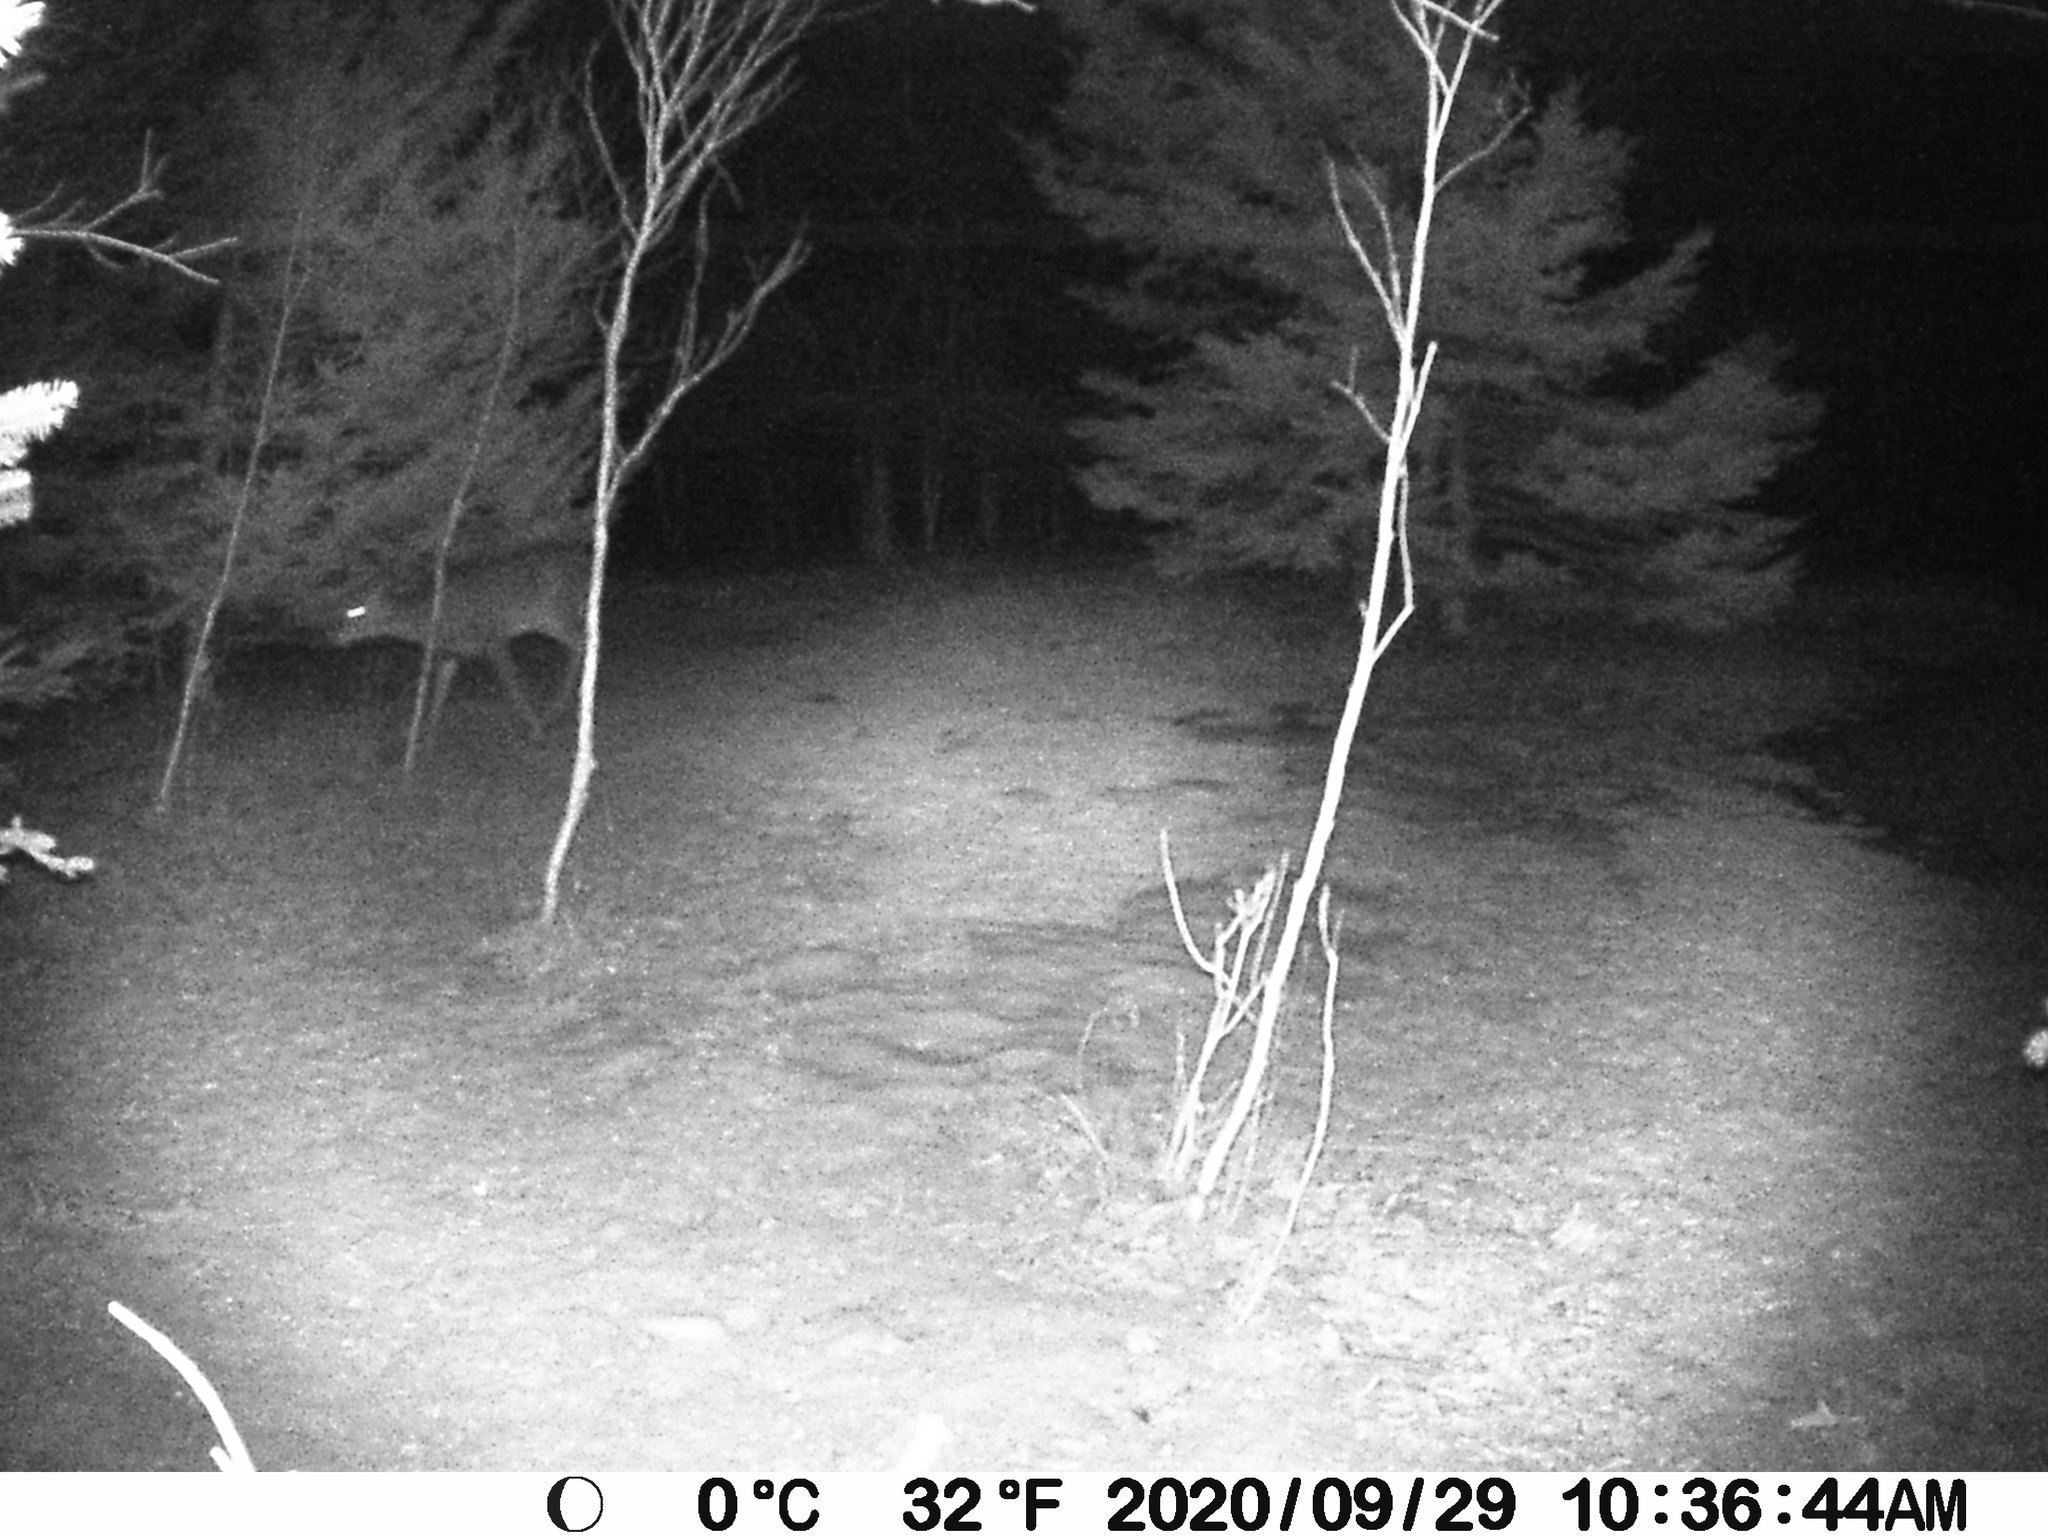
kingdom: Animalia
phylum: Chordata
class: Mammalia
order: Artiodactyla
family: Cervidae
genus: Odocoileus
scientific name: Odocoileus virginianus
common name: White-tailed deer
